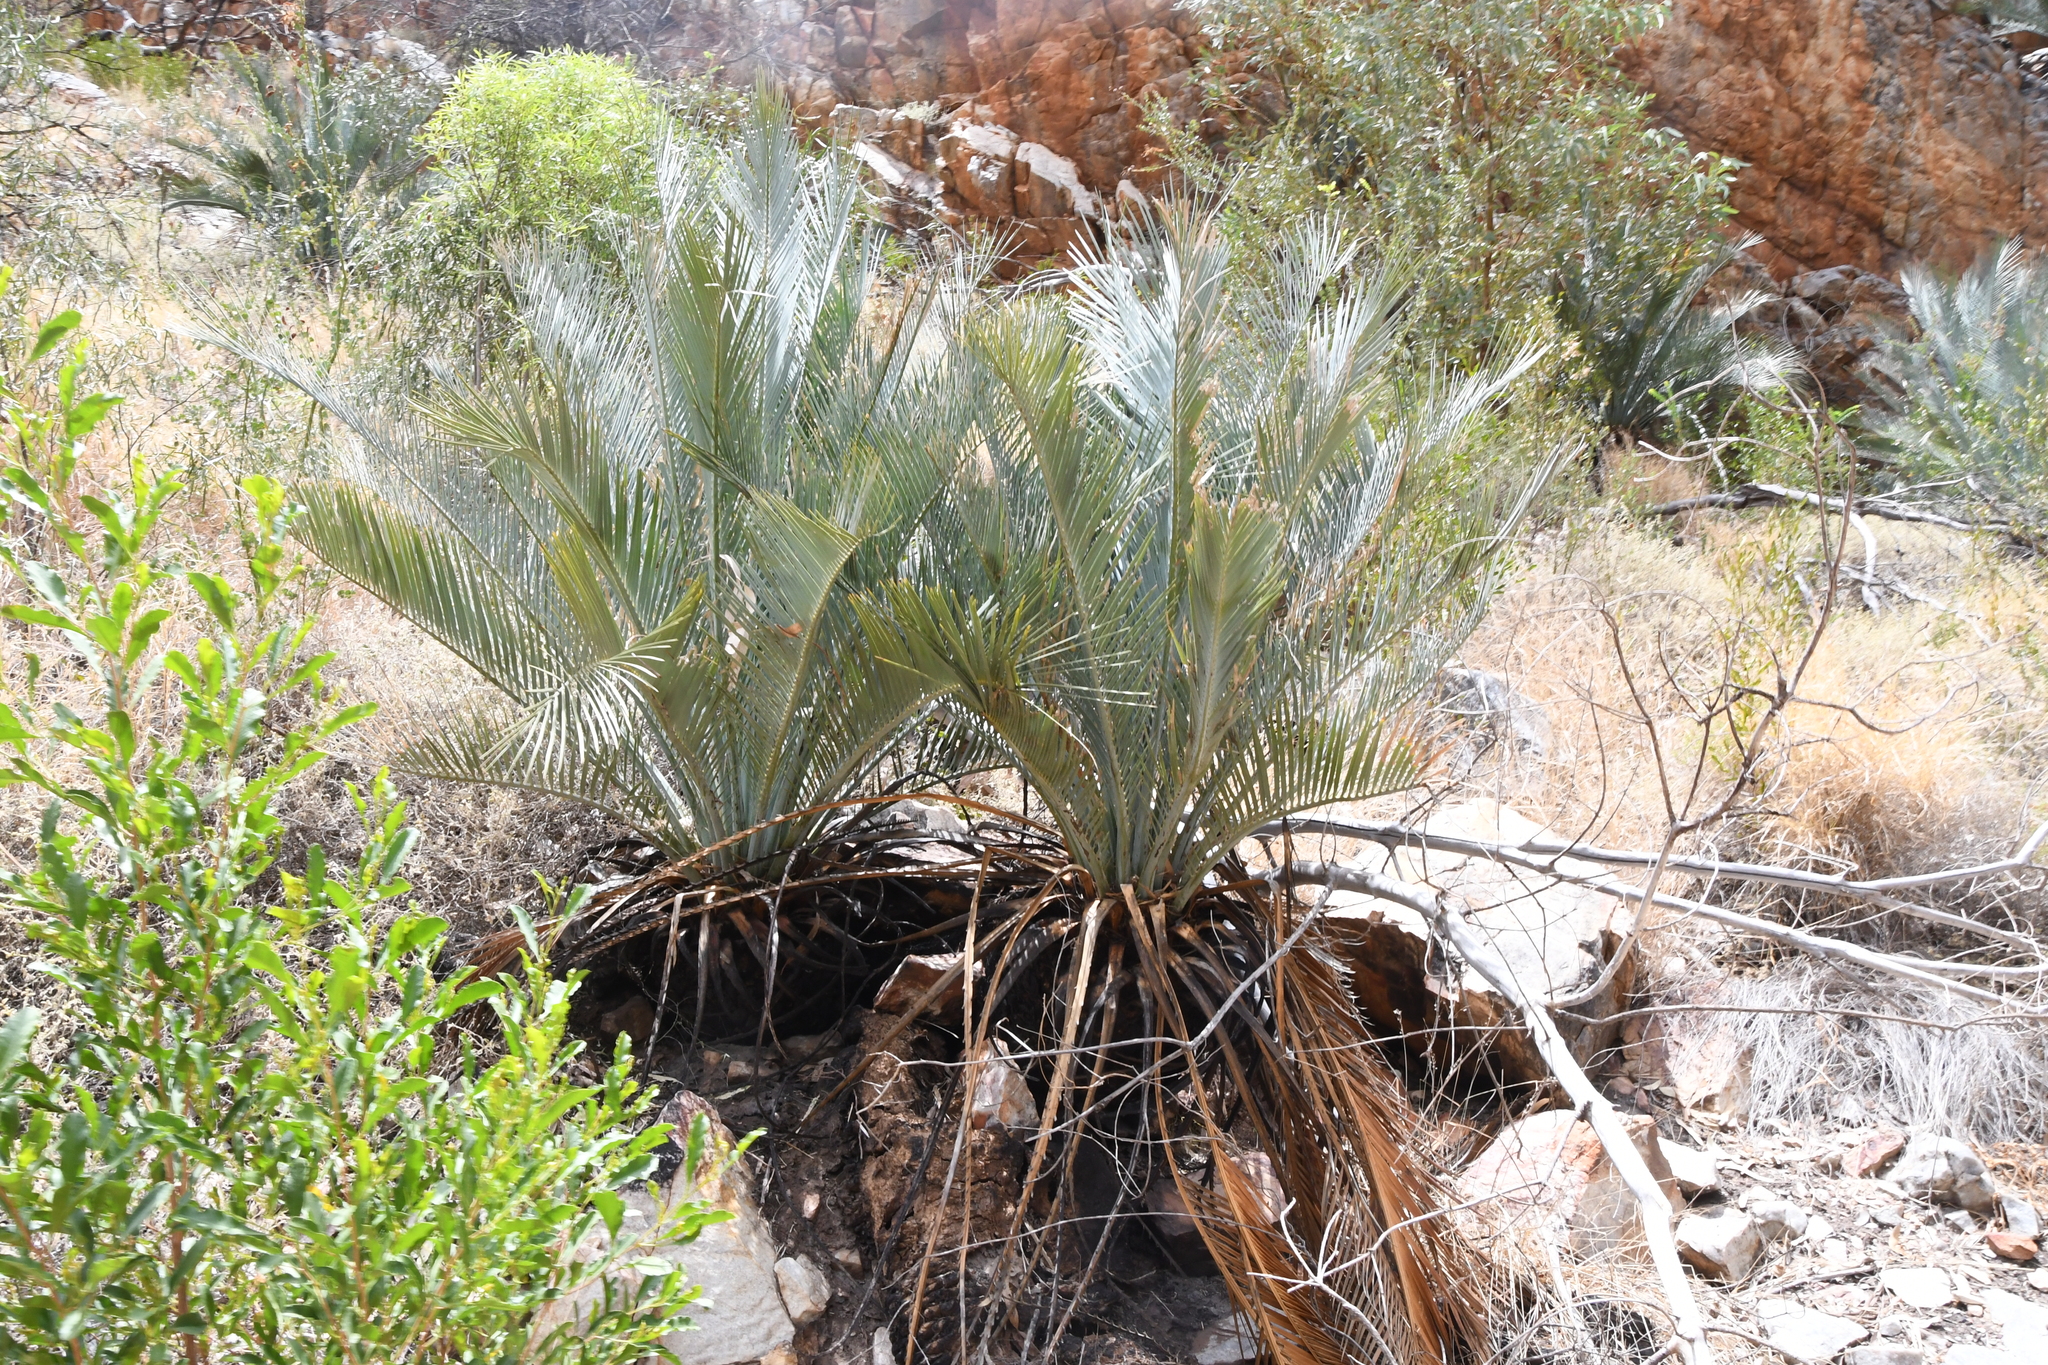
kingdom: Plantae
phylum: Tracheophyta
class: Cycadopsida
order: Cycadales
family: Zamiaceae
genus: Macrozamia
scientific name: Macrozamia macdonnellii
